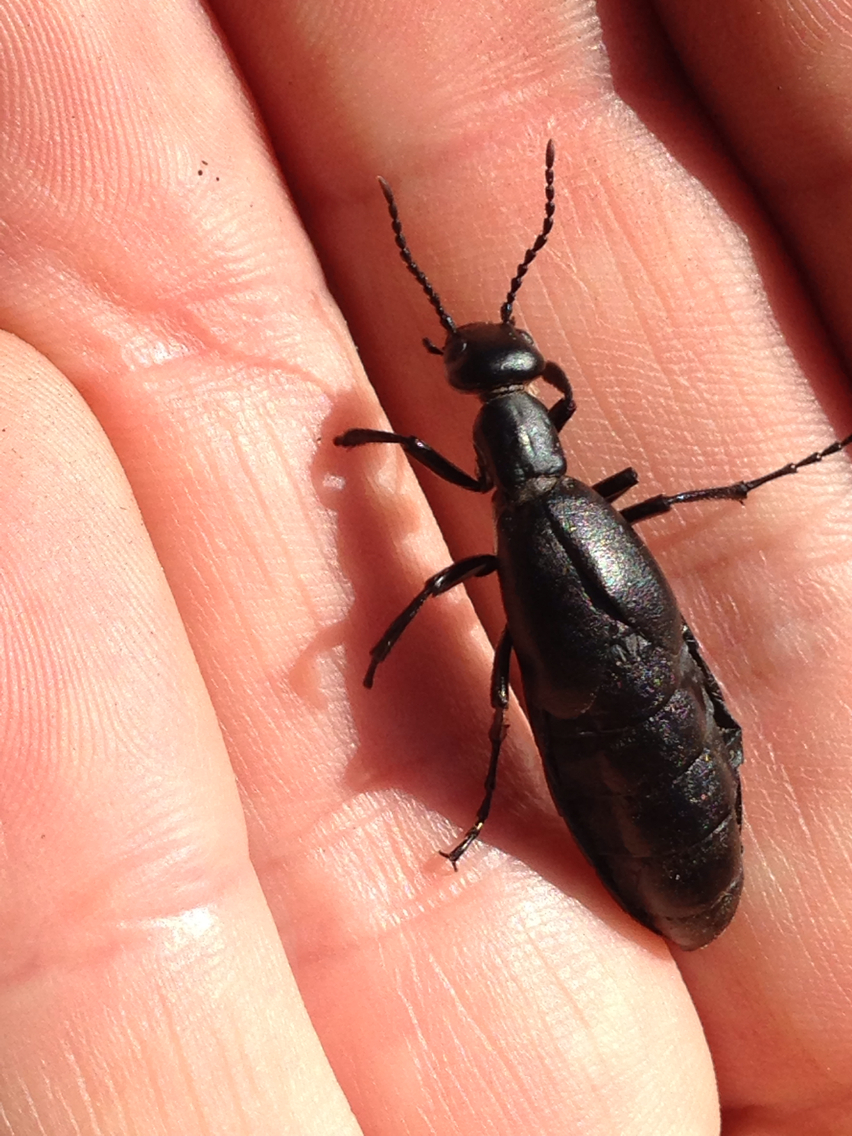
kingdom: Animalia
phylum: Arthropoda
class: Insecta
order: Coleoptera
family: Meloidae
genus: Meloe
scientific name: Meloe strigulosus
